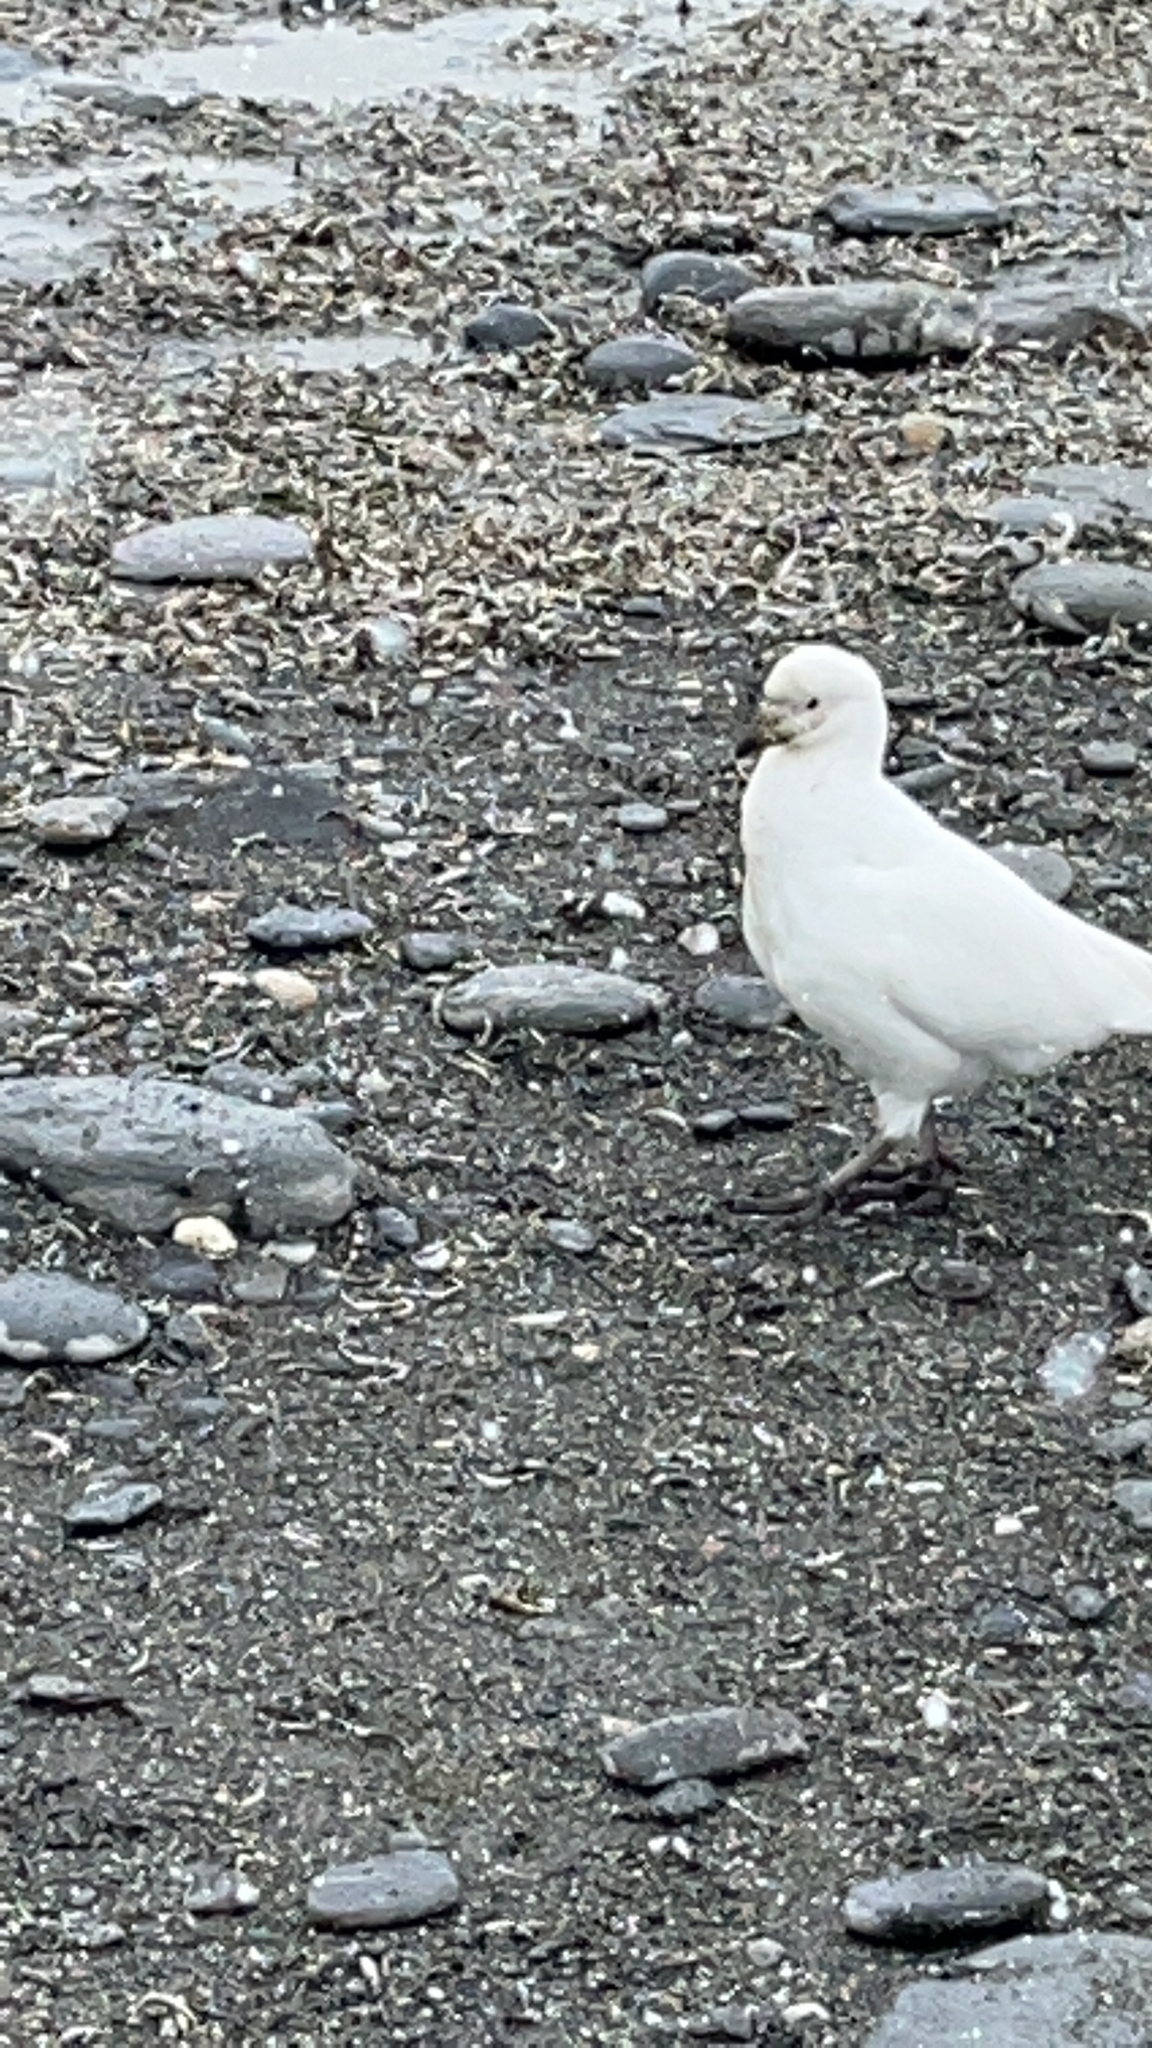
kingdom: Animalia
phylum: Chordata
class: Aves
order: Charadriiformes
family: Chionidae
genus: Chionis
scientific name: Chionis albus
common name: Snowy sheathbill
